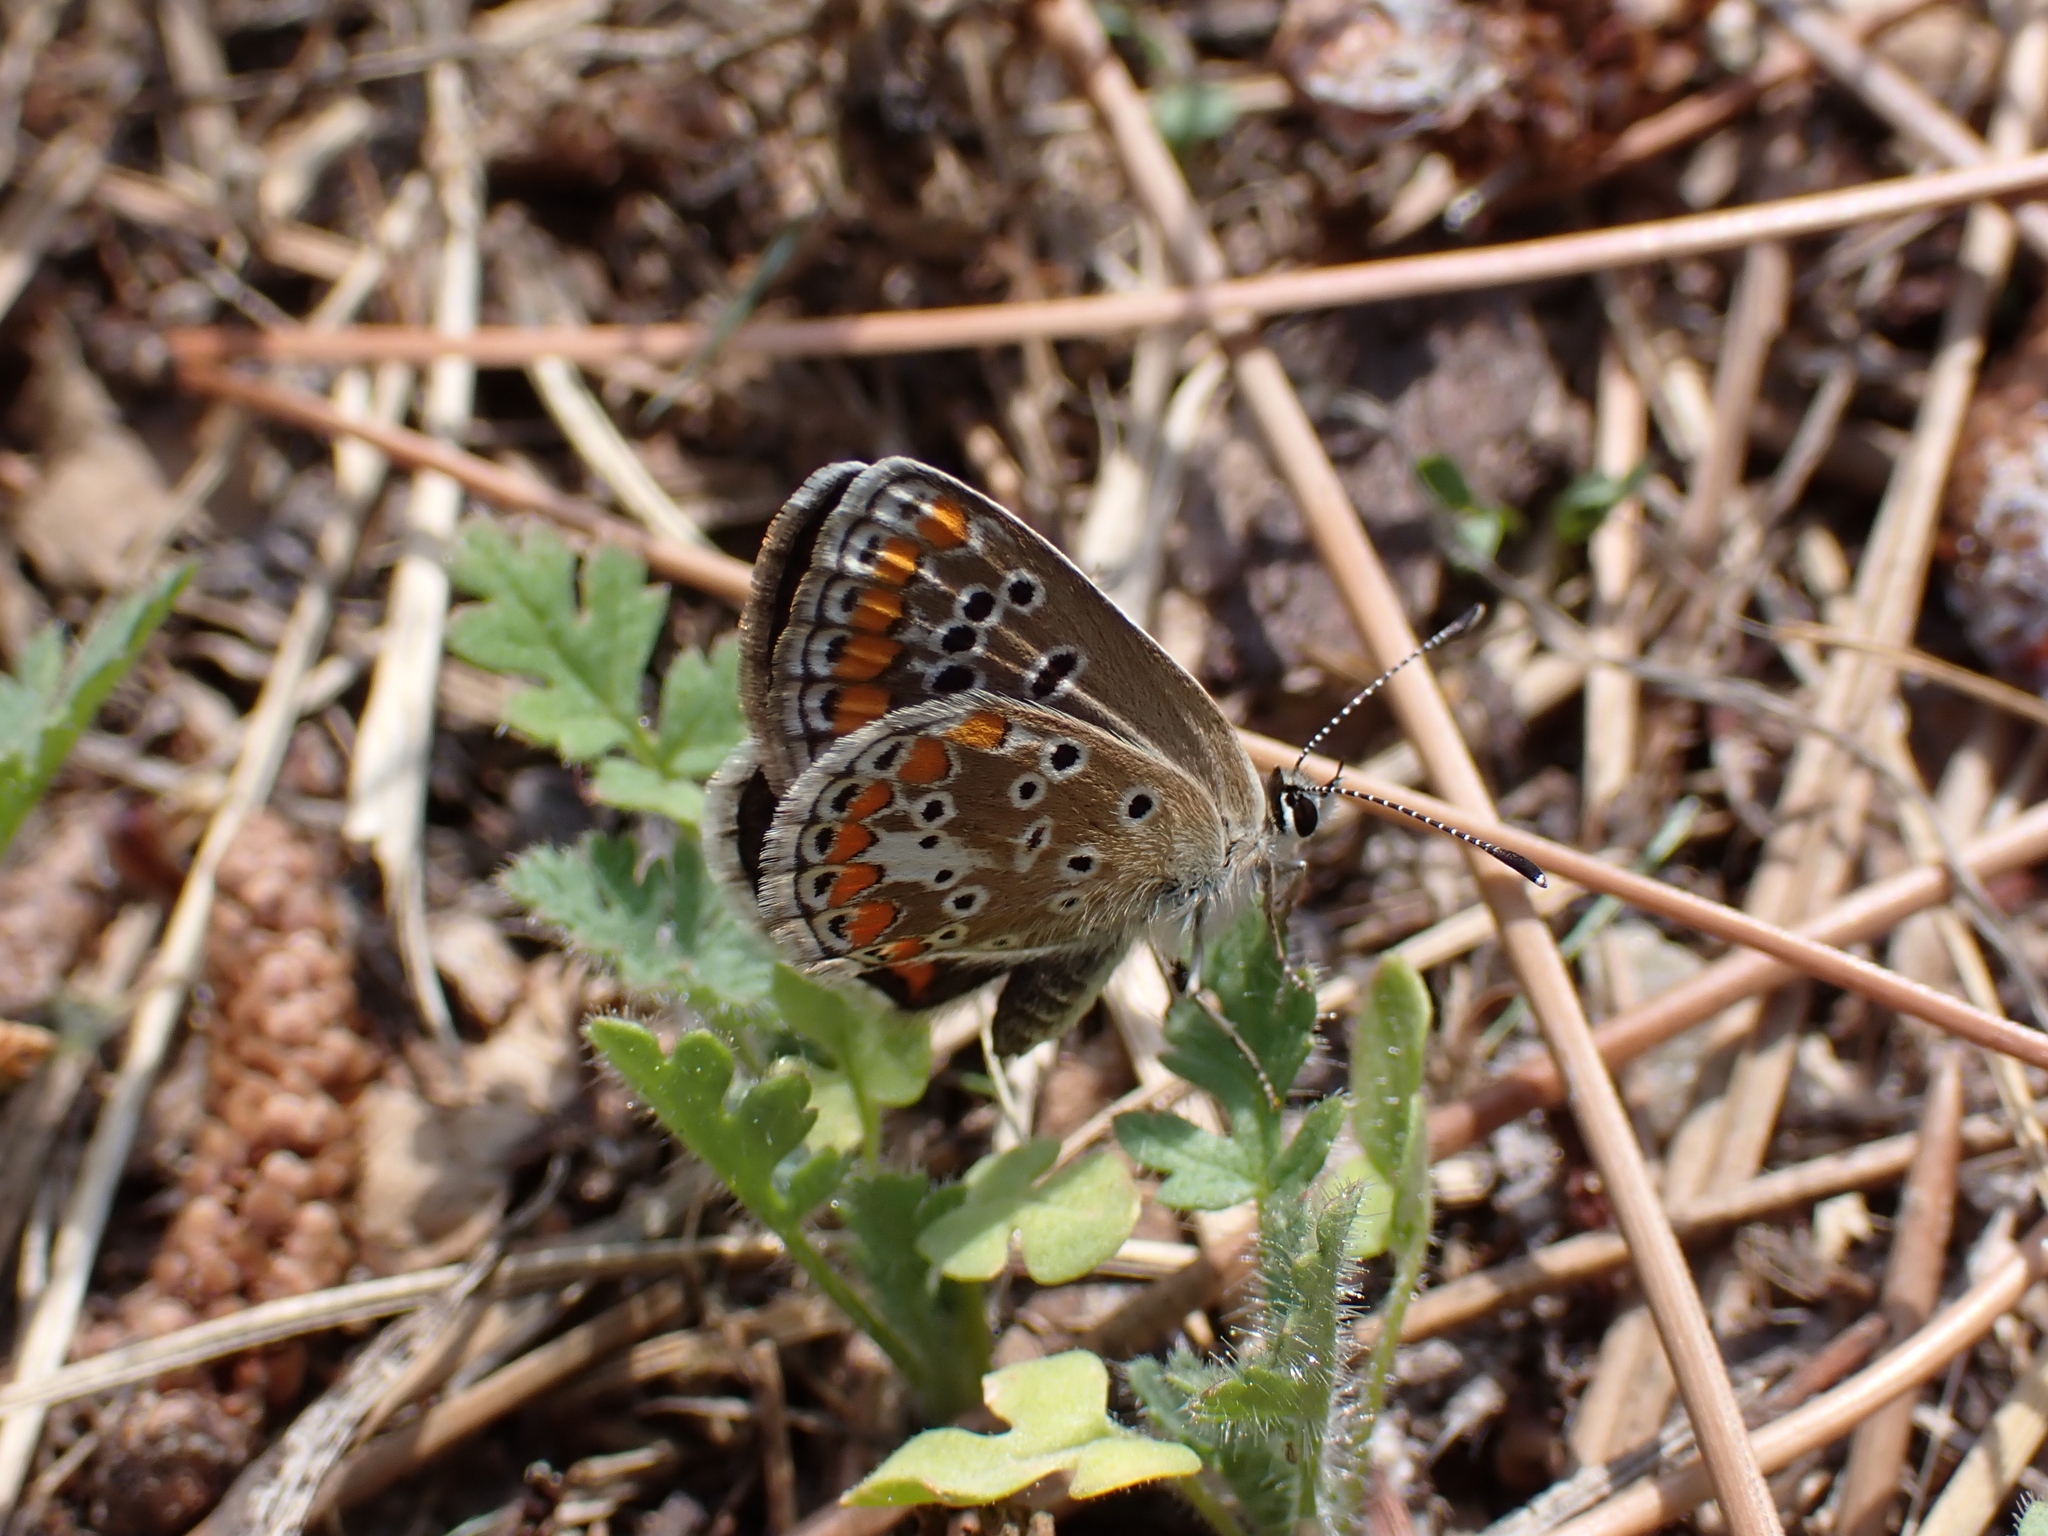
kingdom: Animalia
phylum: Arthropoda
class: Insecta
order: Lepidoptera
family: Lycaenidae
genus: Aricia
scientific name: Aricia agestis
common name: Brown argus
